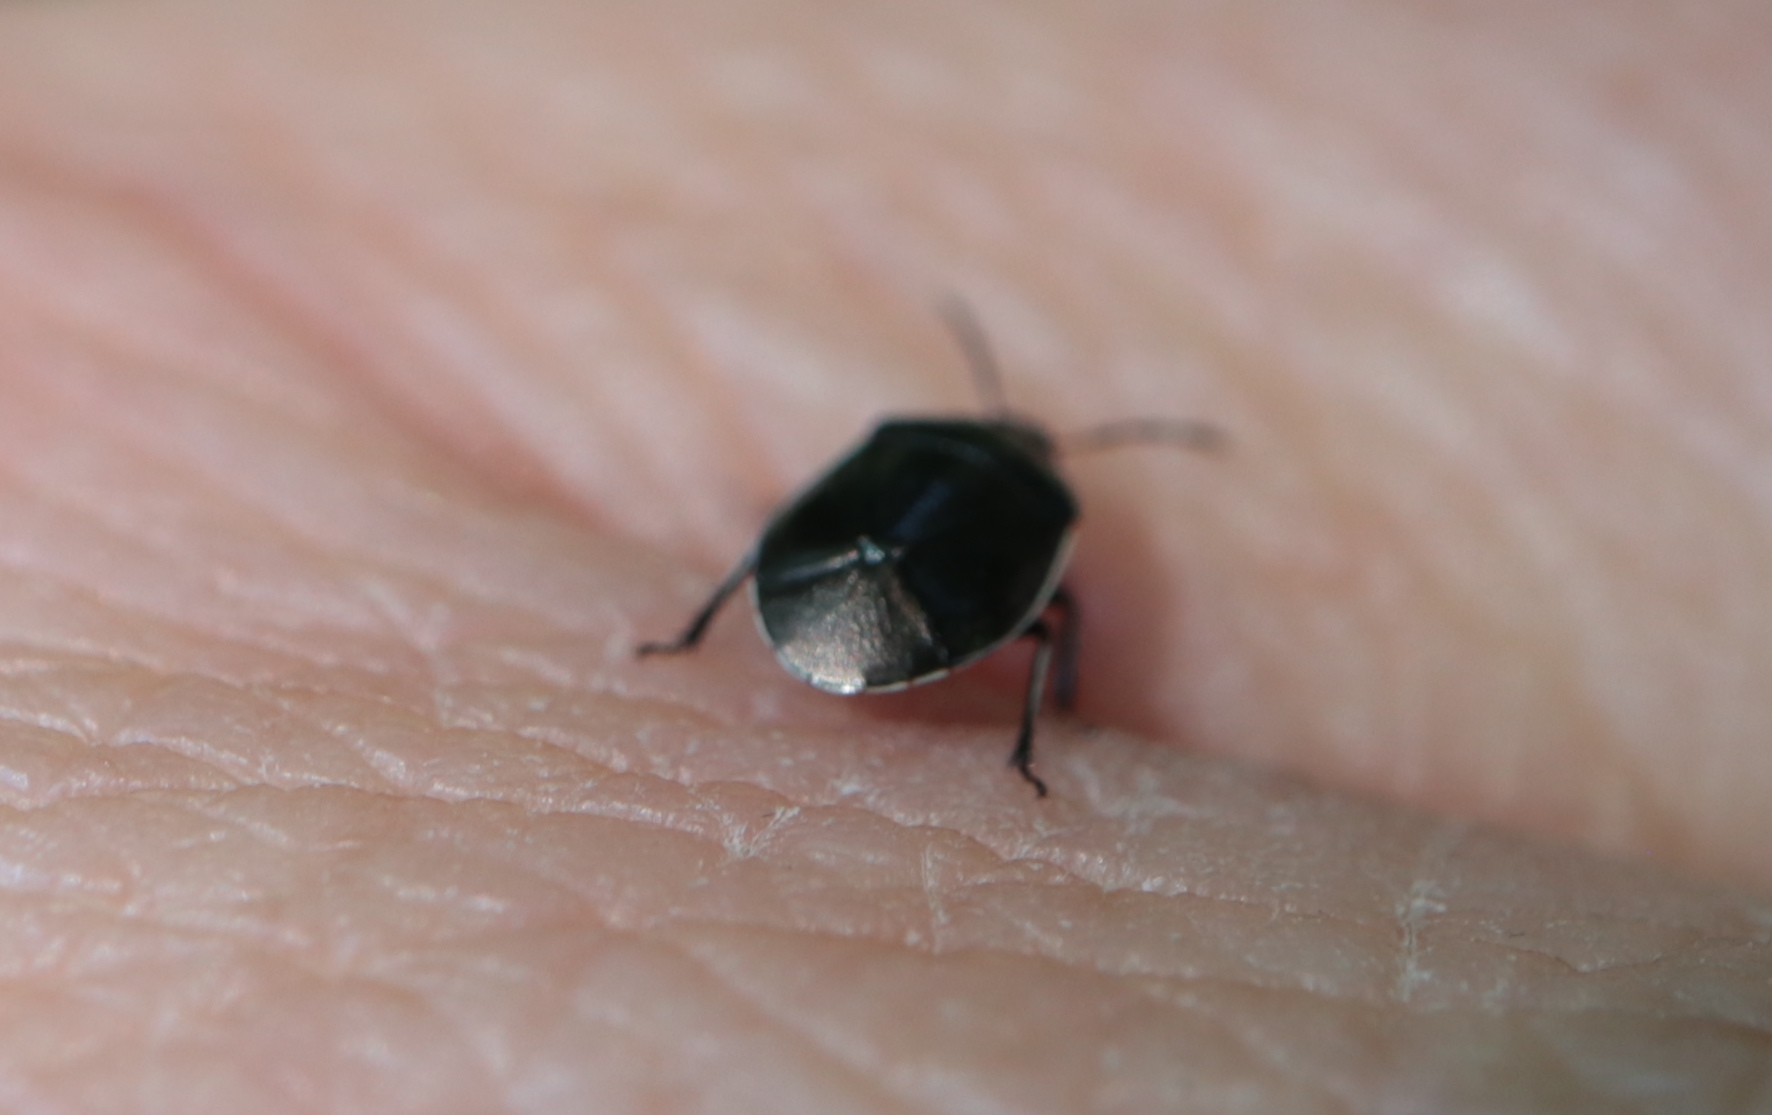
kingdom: Animalia
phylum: Arthropoda
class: Insecta
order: Hemiptera
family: Cydnidae
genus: Sehirus
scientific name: Sehirus cinctus
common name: White-margined burrower bug
